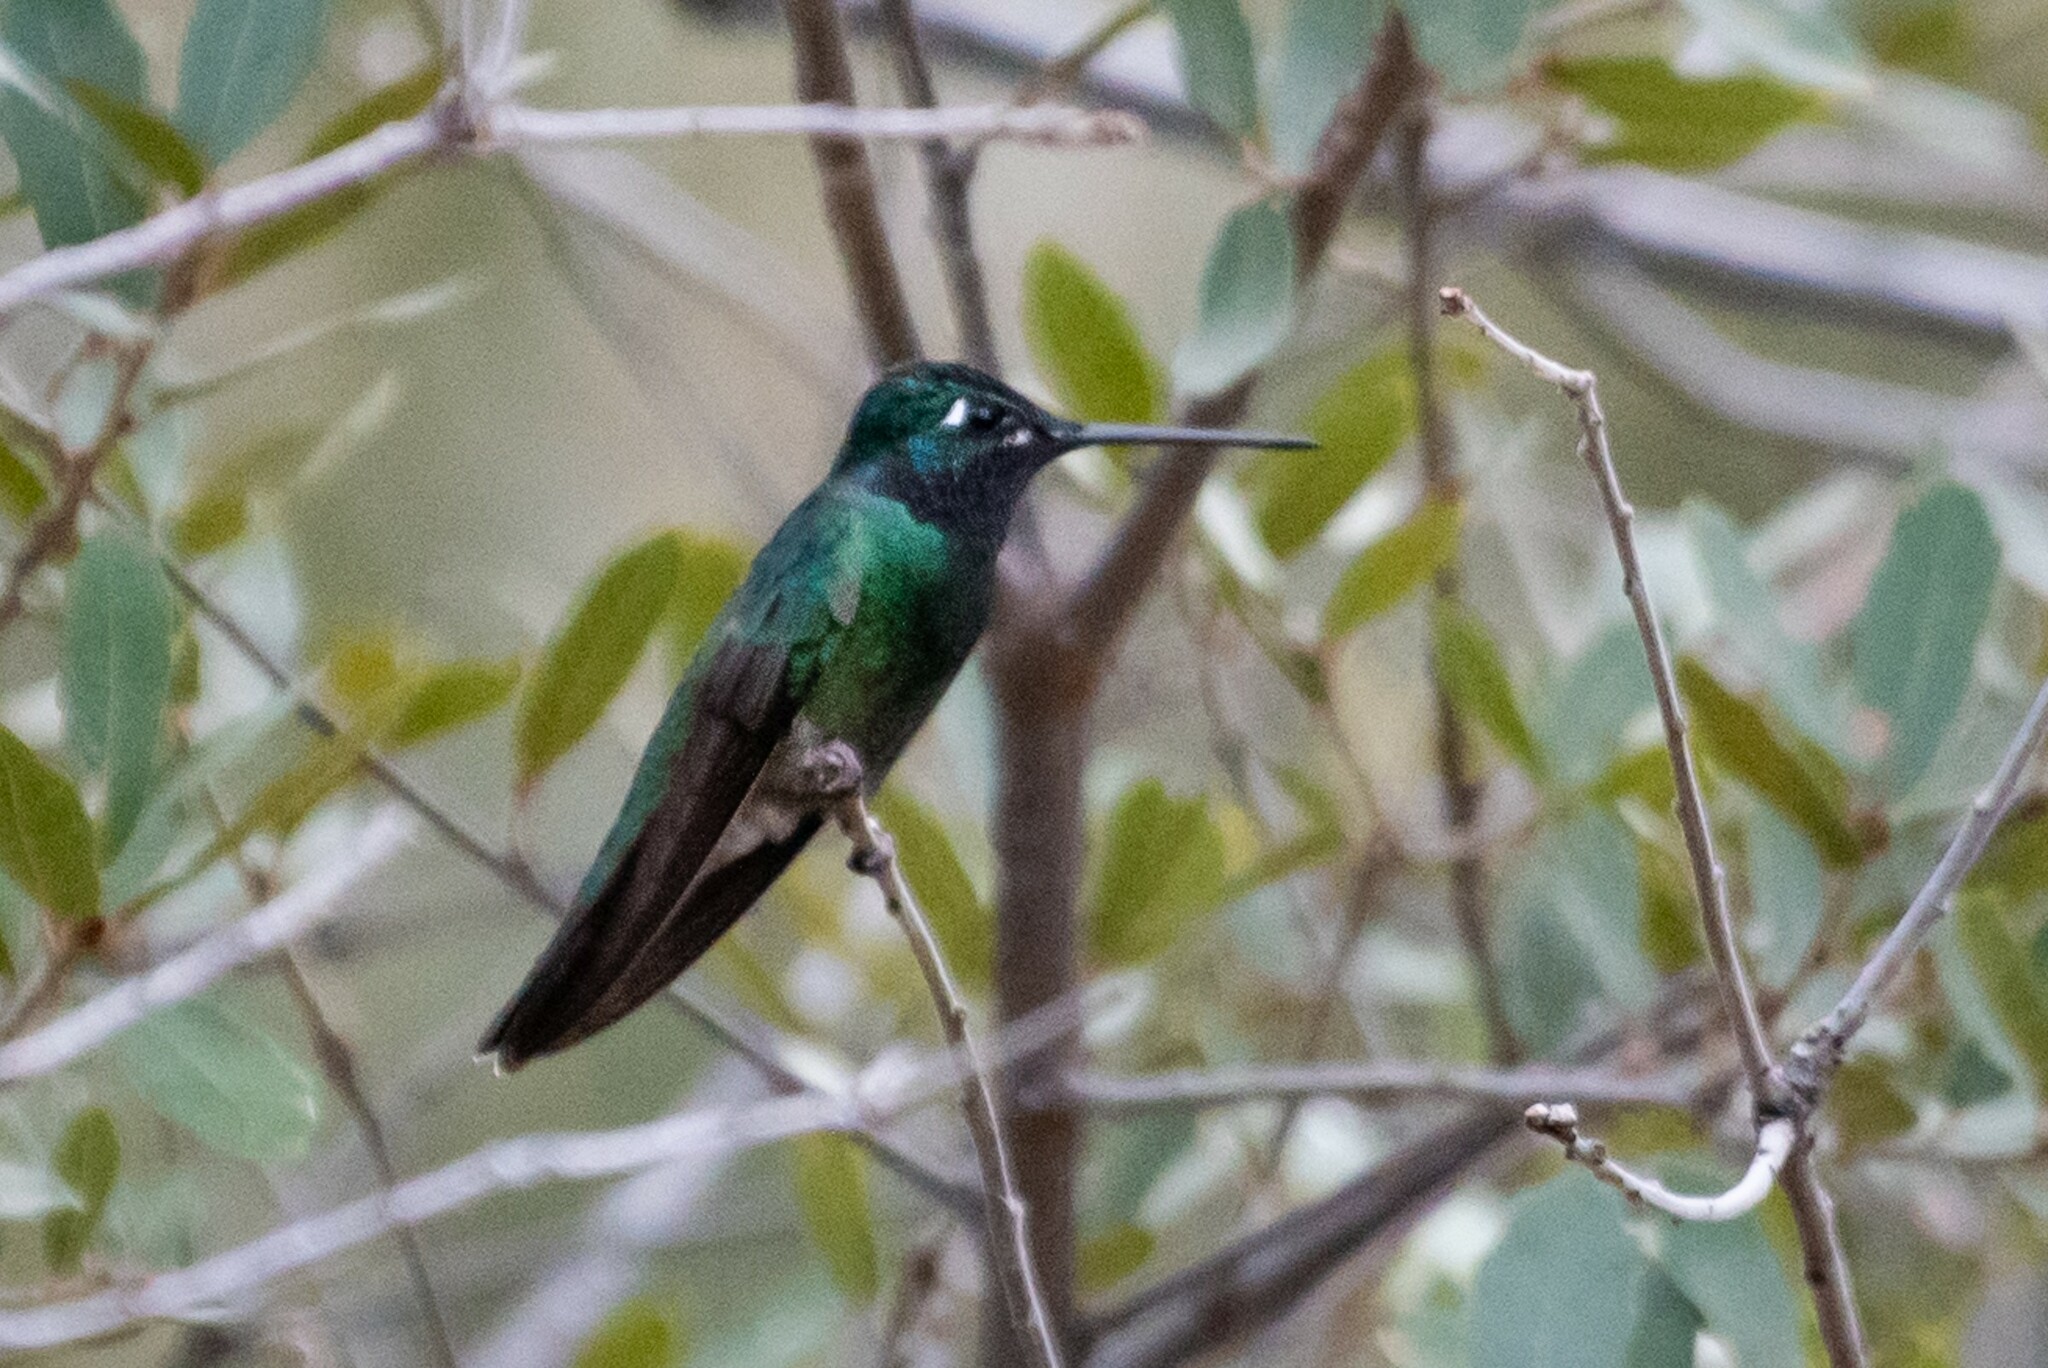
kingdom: Animalia
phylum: Chordata
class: Aves
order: Apodiformes
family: Trochilidae
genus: Eugenes
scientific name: Eugenes fulgens
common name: Magnificent hummingbird
